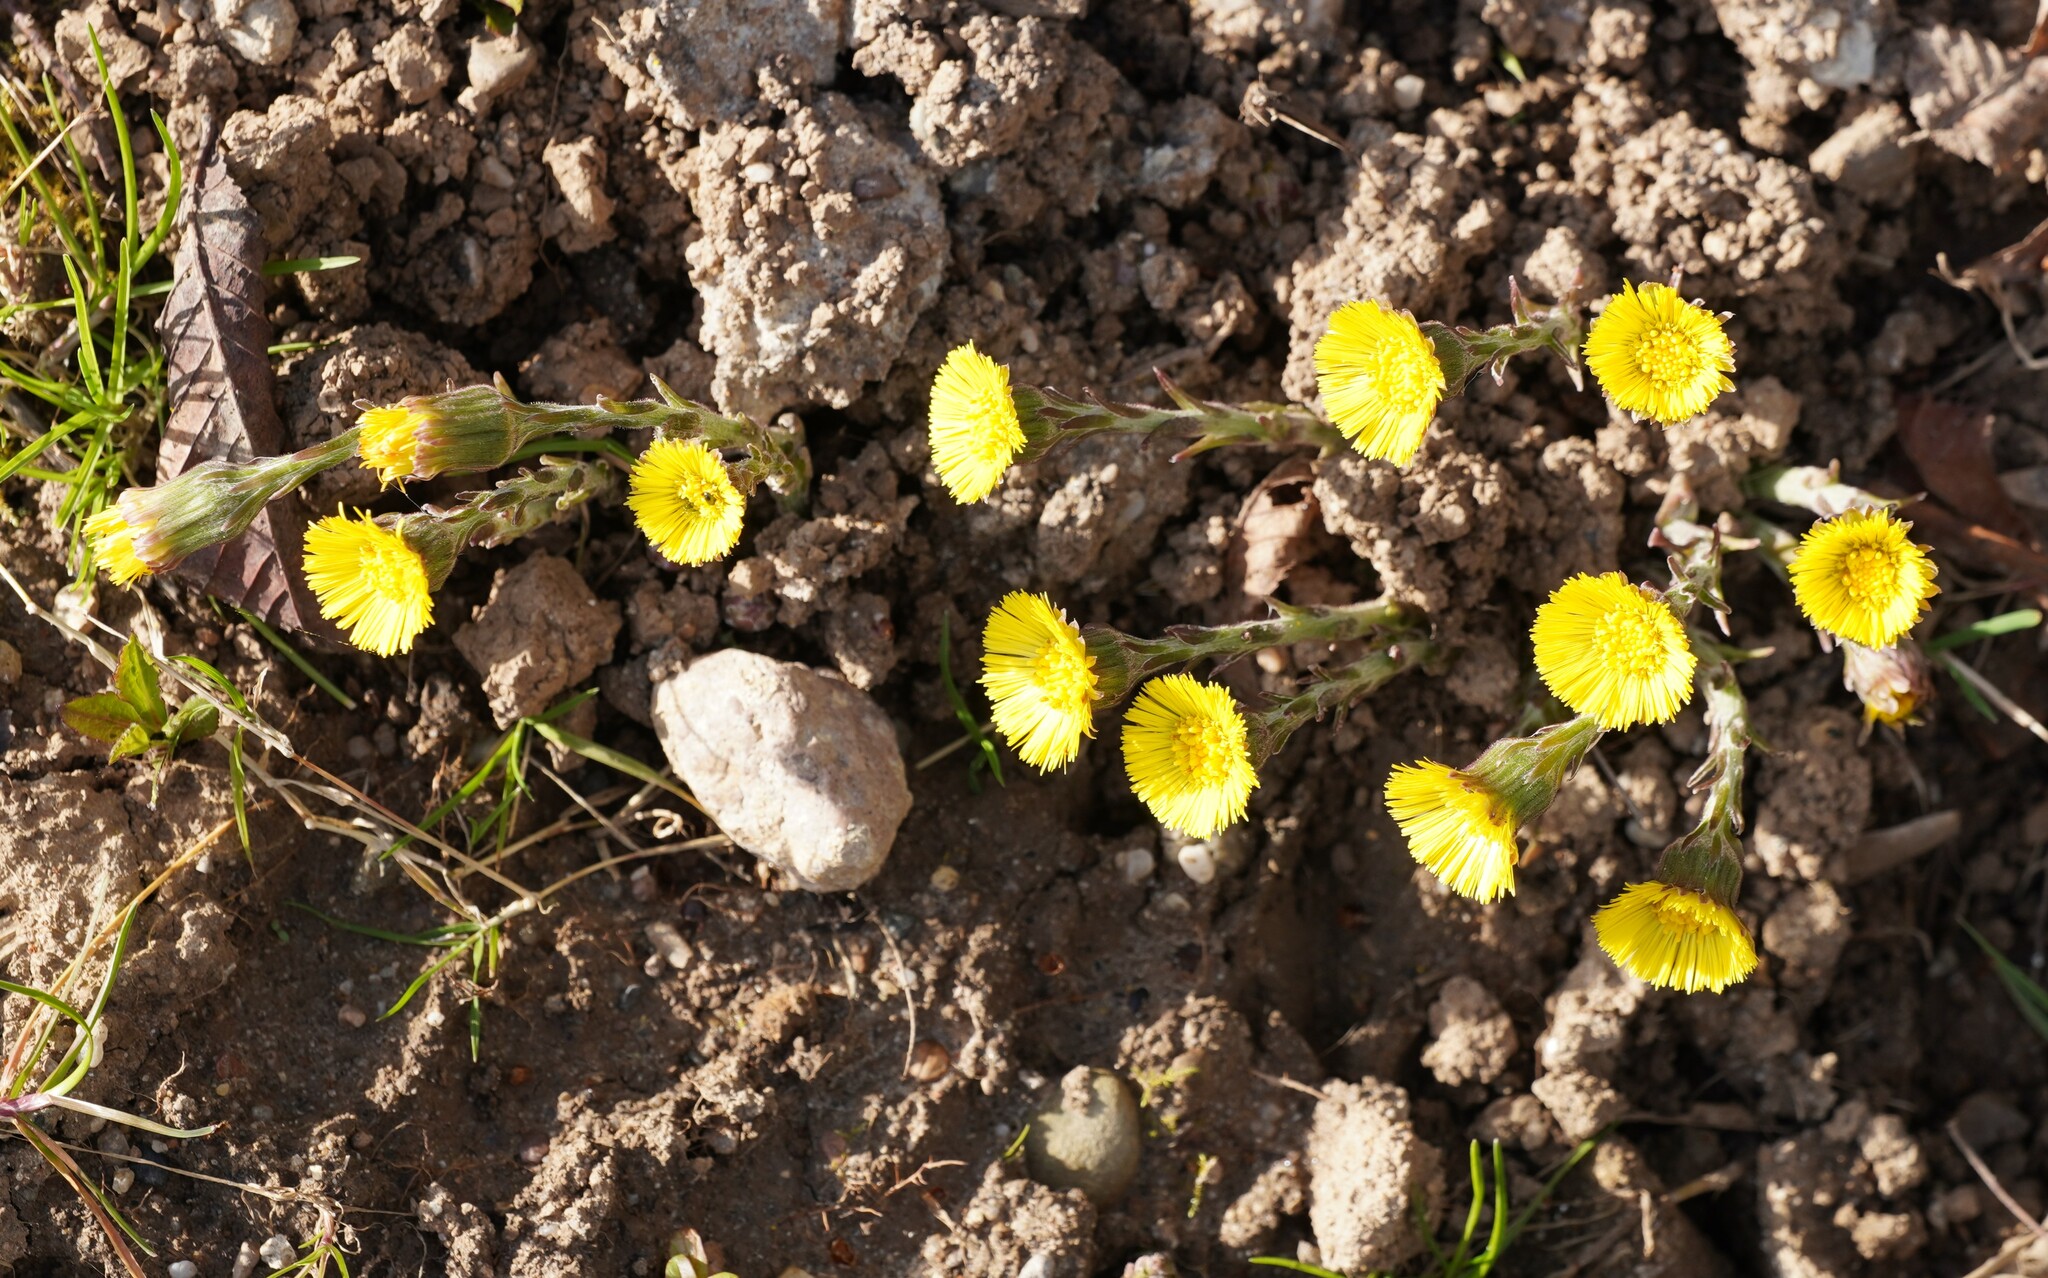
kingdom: Plantae
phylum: Tracheophyta
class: Magnoliopsida
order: Asterales
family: Asteraceae
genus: Tussilago
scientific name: Tussilago farfara
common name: Coltsfoot
